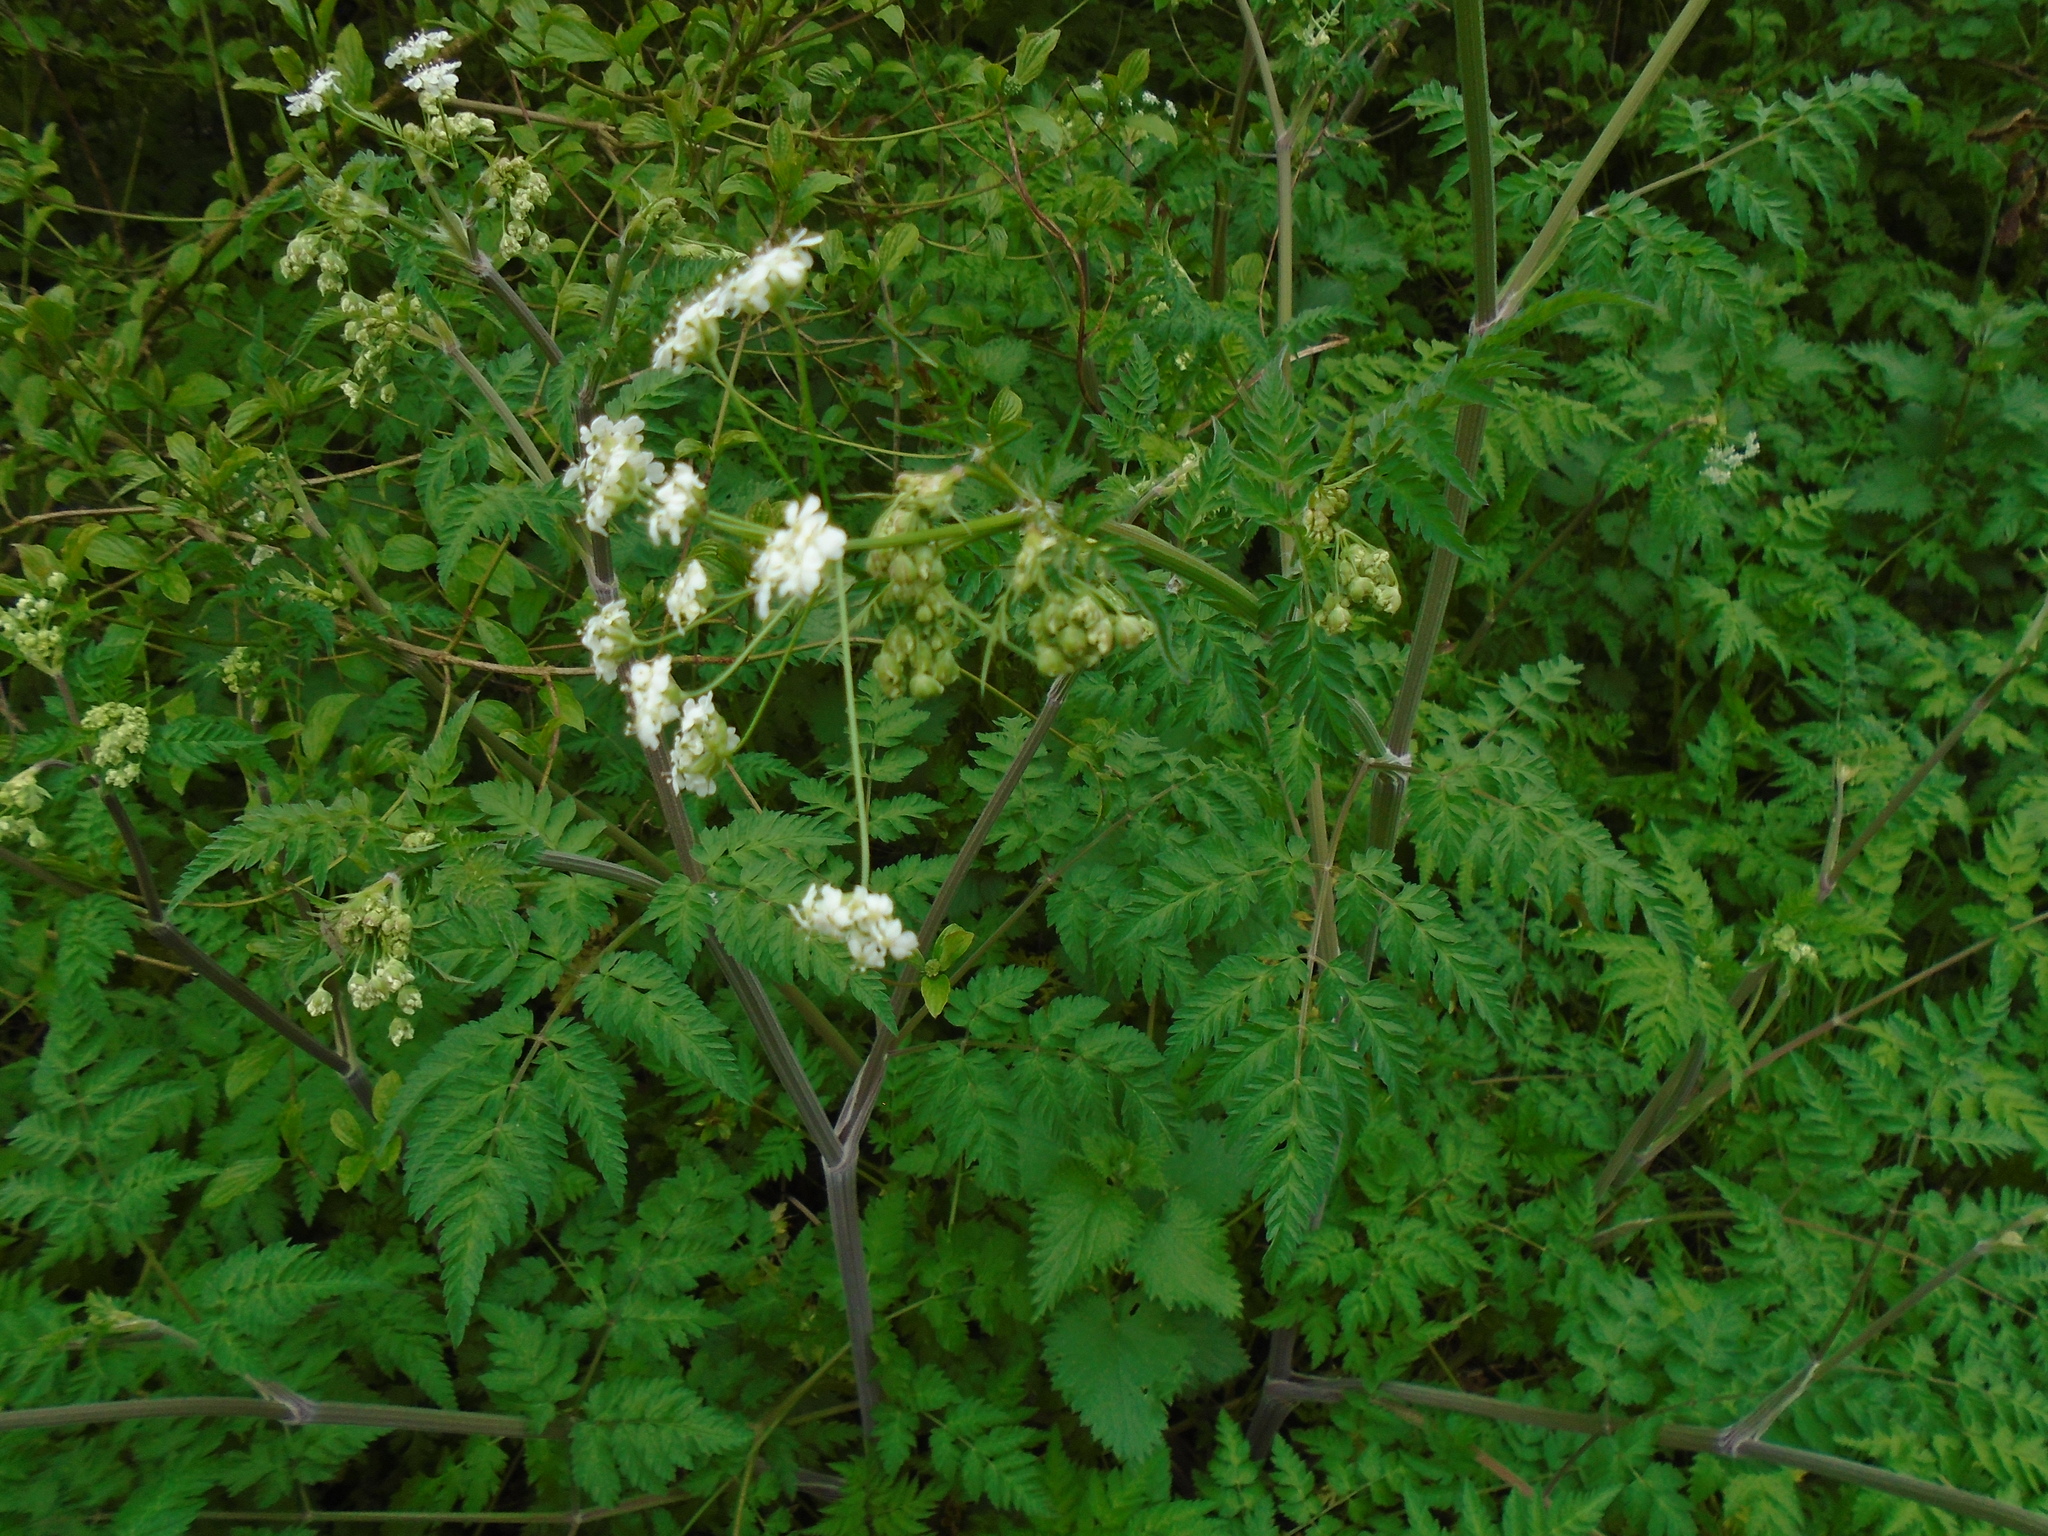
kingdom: Plantae
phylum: Tracheophyta
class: Magnoliopsida
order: Apiales
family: Apiaceae
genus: Anthriscus
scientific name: Anthriscus sylvestris
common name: Cow parsley
